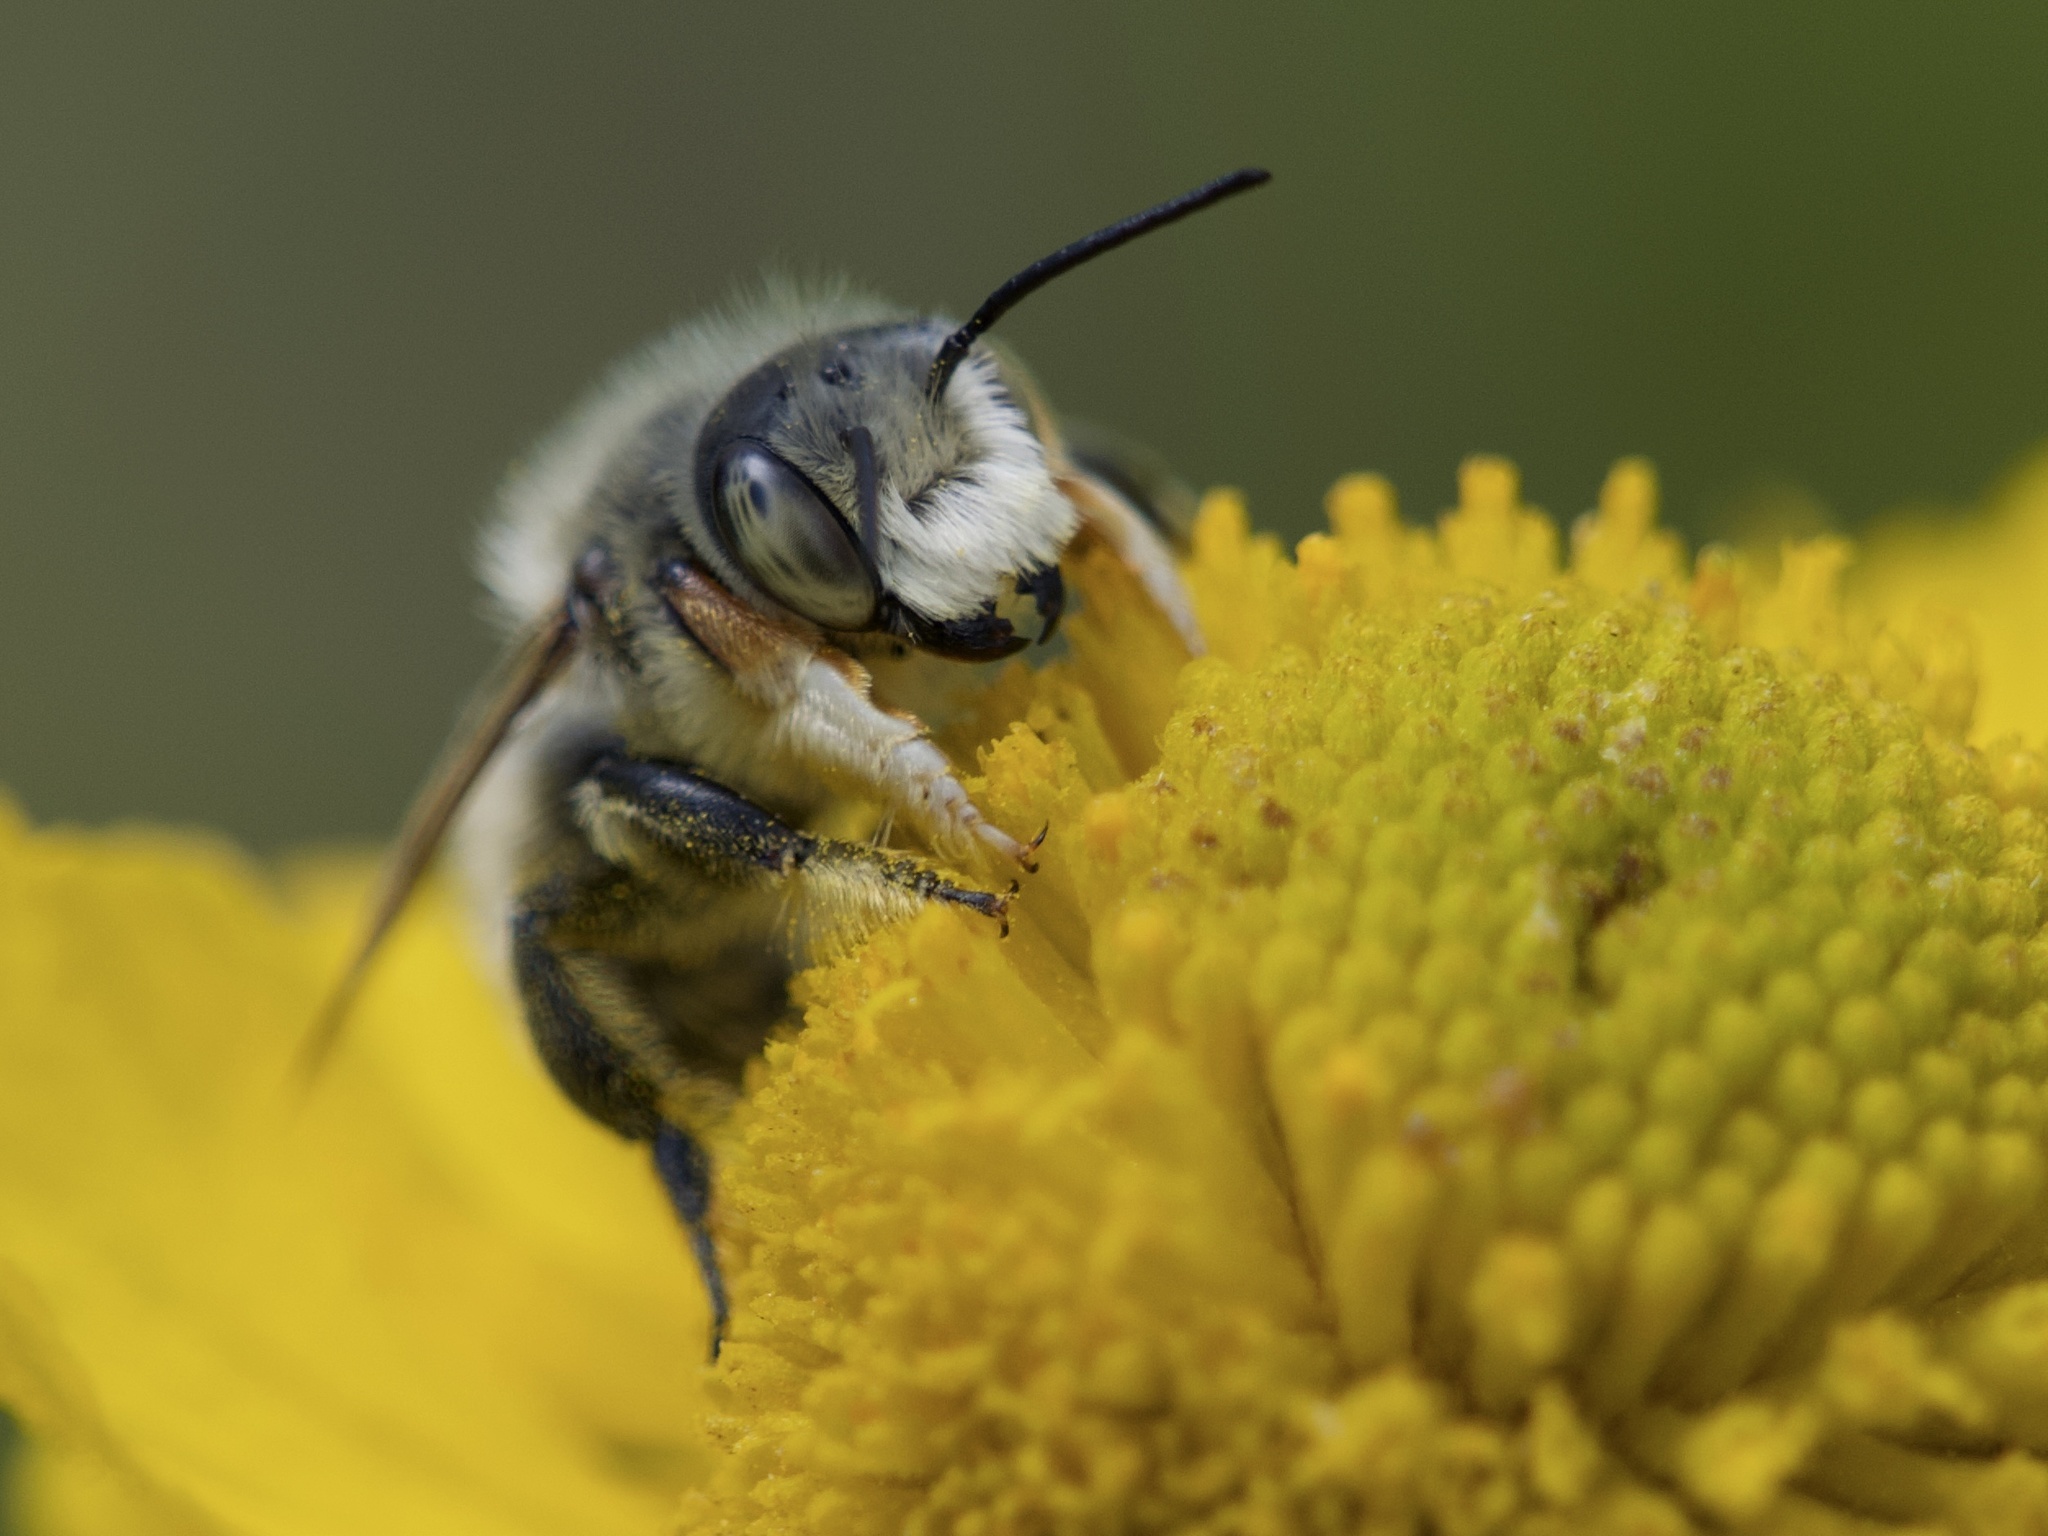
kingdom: Animalia
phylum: Arthropoda
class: Insecta
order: Hymenoptera
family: Megachilidae
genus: Megachile
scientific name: Megachile perihirta
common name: Western leafcutter
